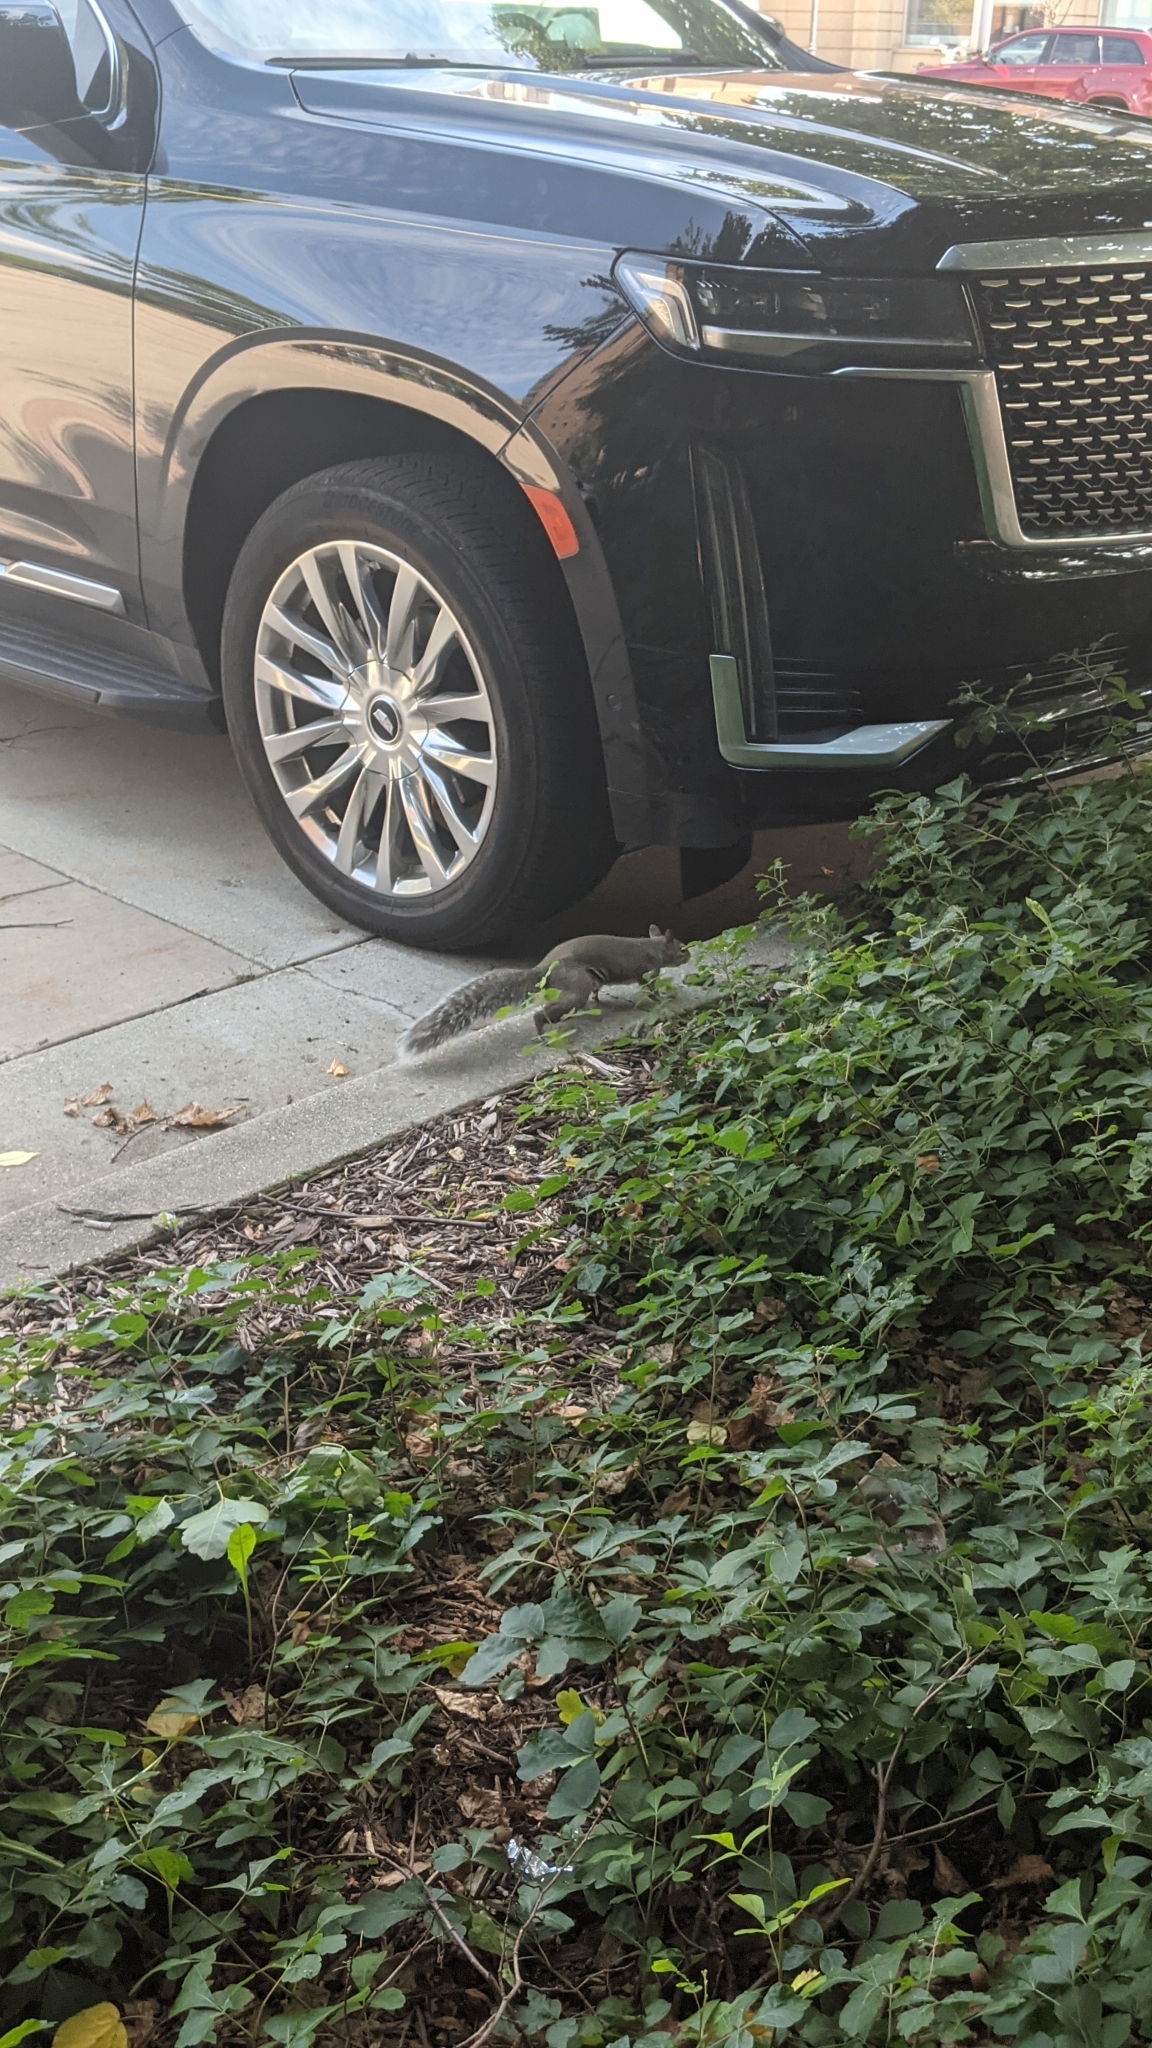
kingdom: Animalia
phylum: Chordata
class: Mammalia
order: Rodentia
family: Sciuridae
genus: Sciurus
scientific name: Sciurus carolinensis
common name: Eastern gray squirrel
